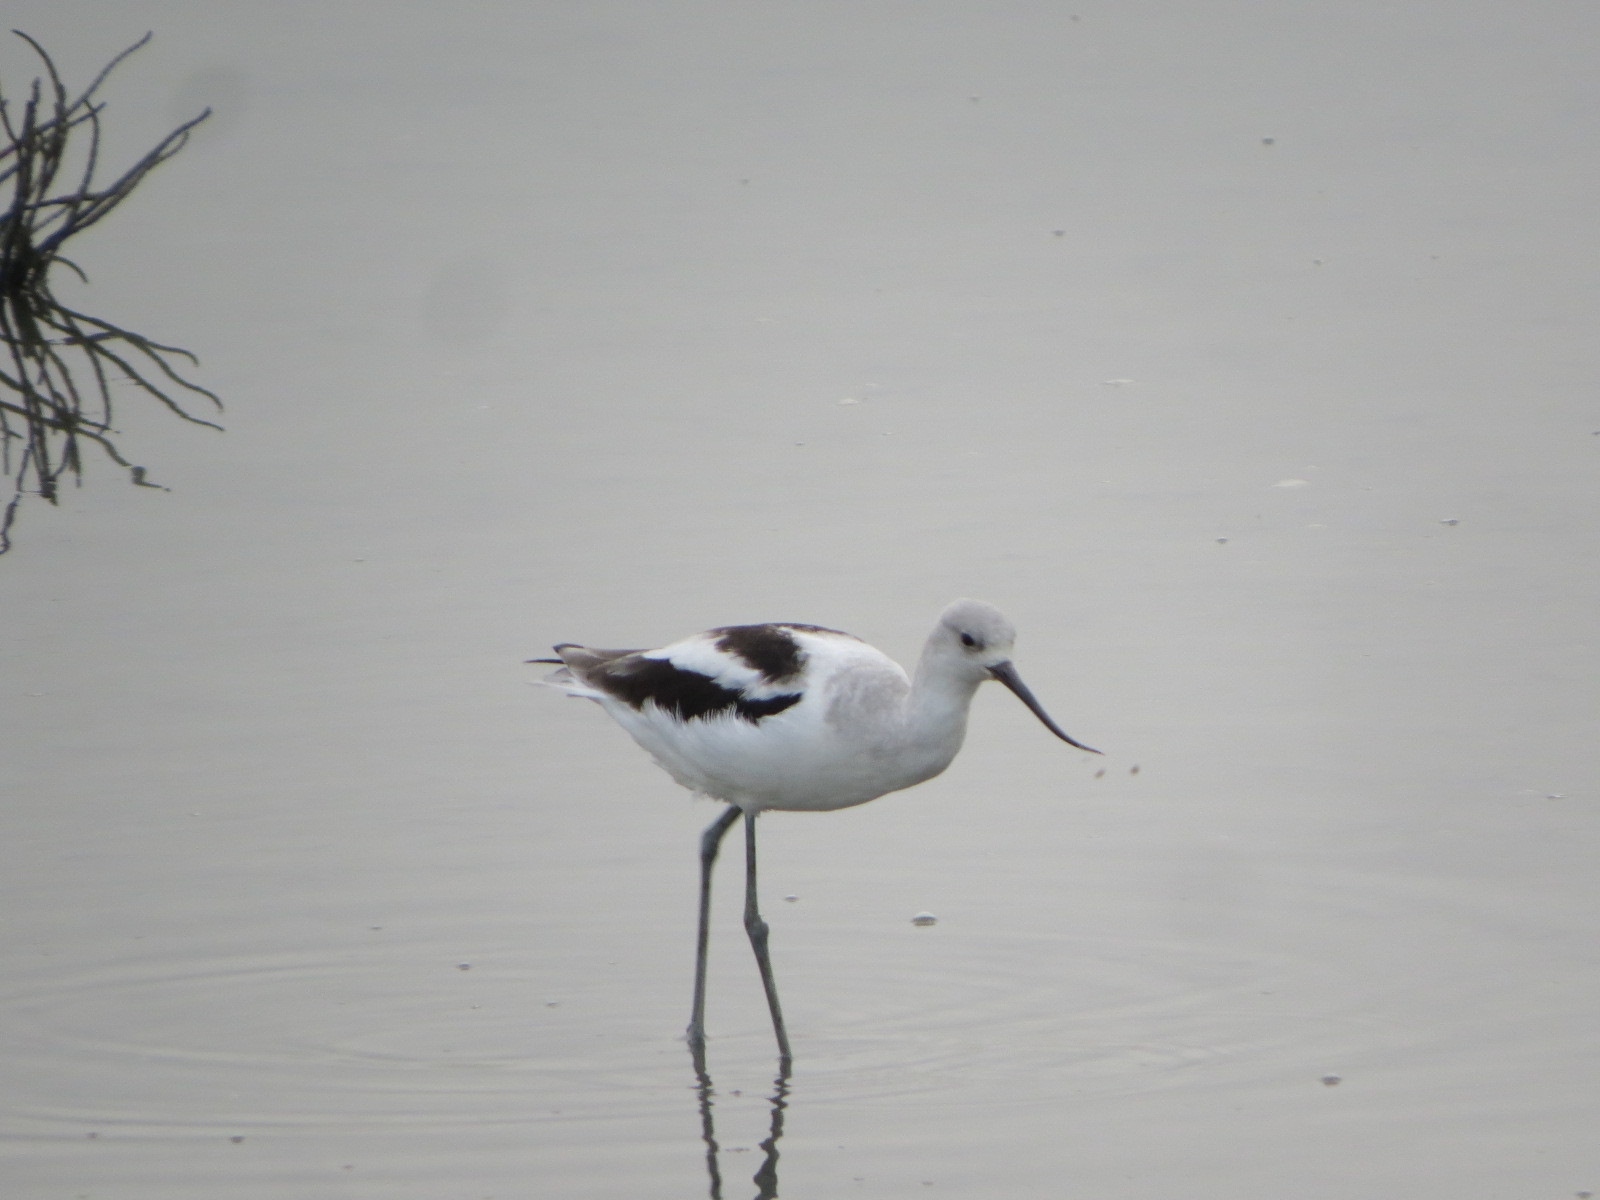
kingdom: Animalia
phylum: Chordata
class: Aves
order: Charadriiformes
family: Recurvirostridae
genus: Recurvirostra
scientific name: Recurvirostra americana
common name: American avocet
